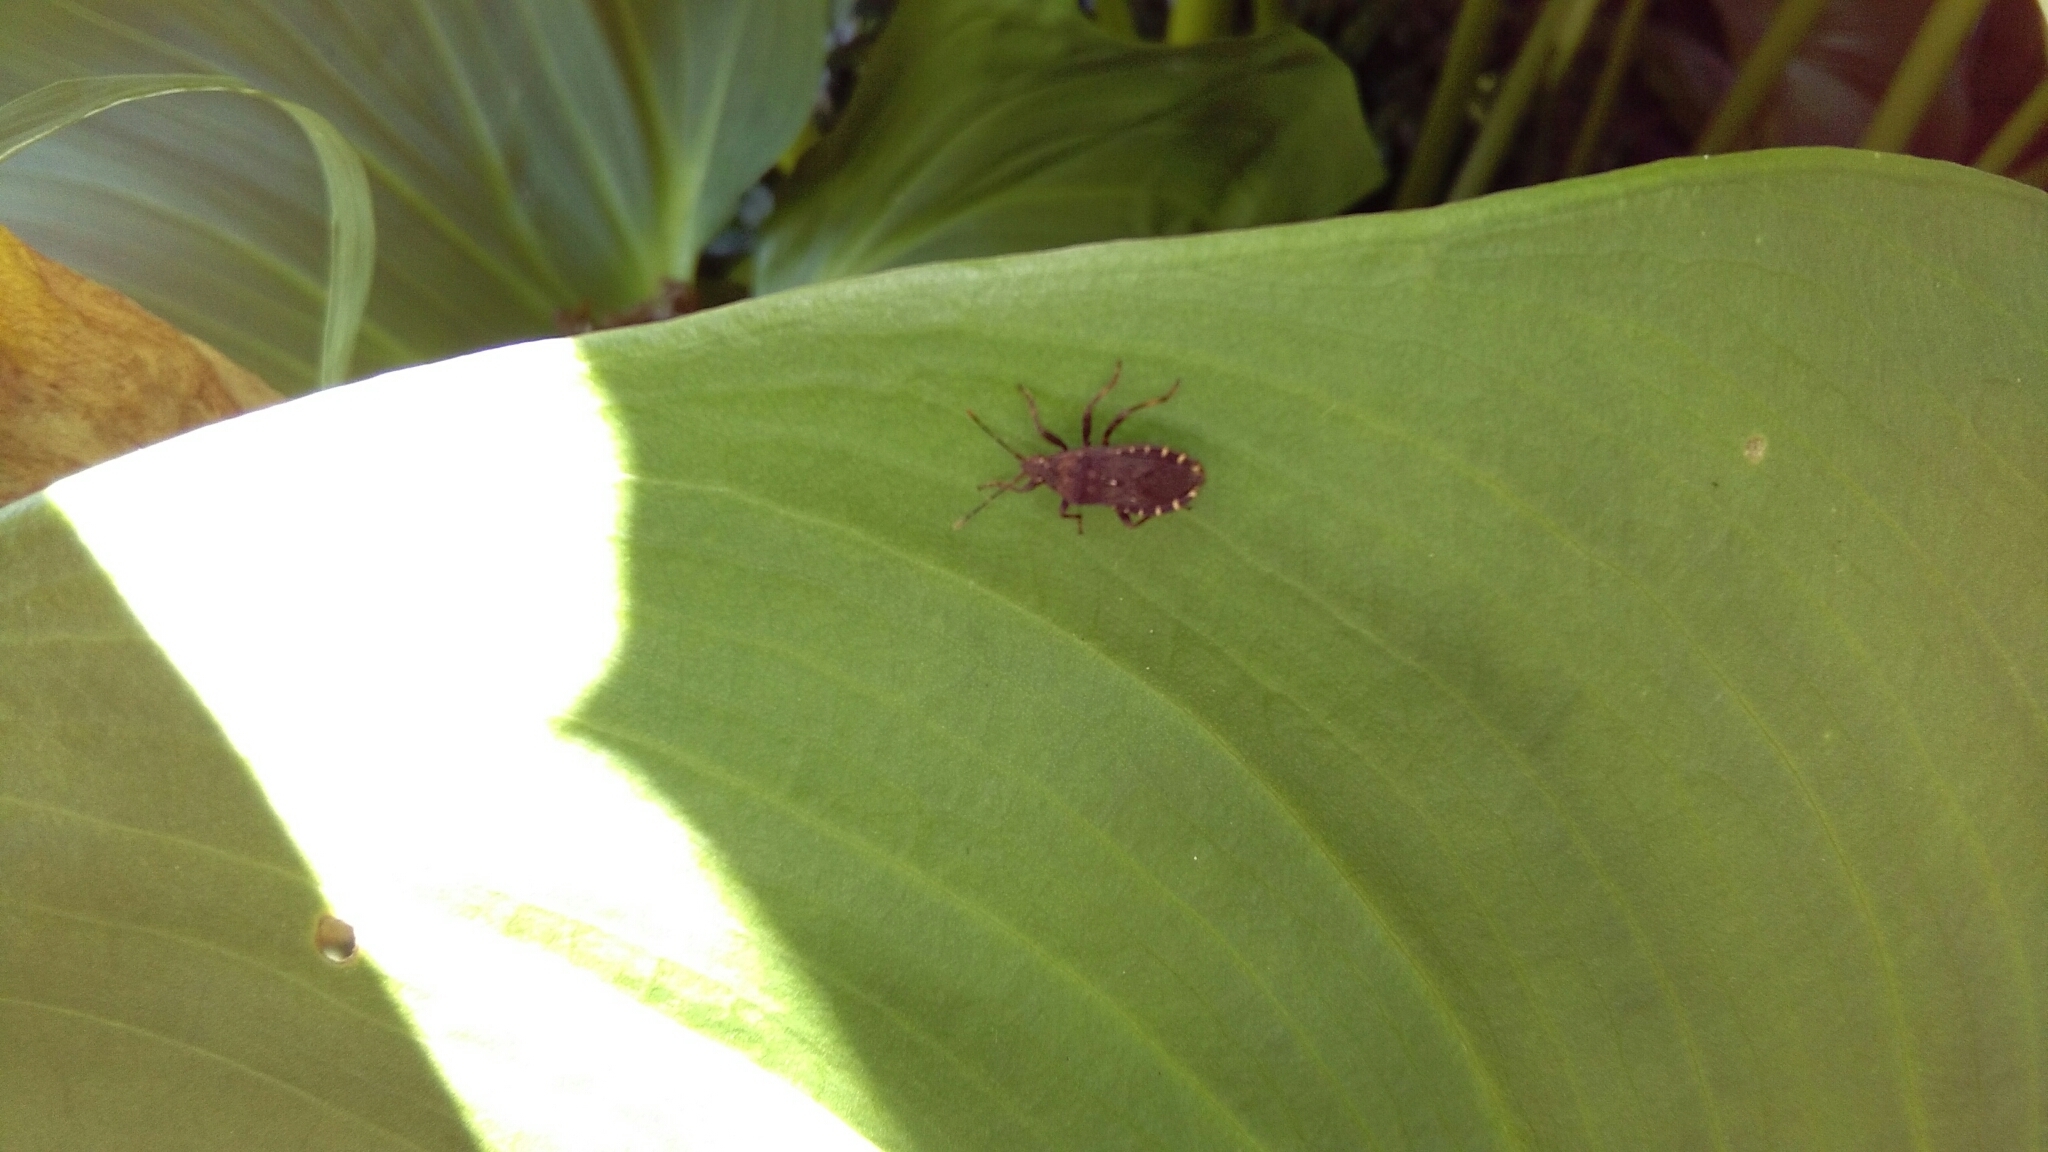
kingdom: Animalia
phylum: Arthropoda
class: Insecta
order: Hemiptera
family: Coreidae
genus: Acantholybas
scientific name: Acantholybas brunneus
